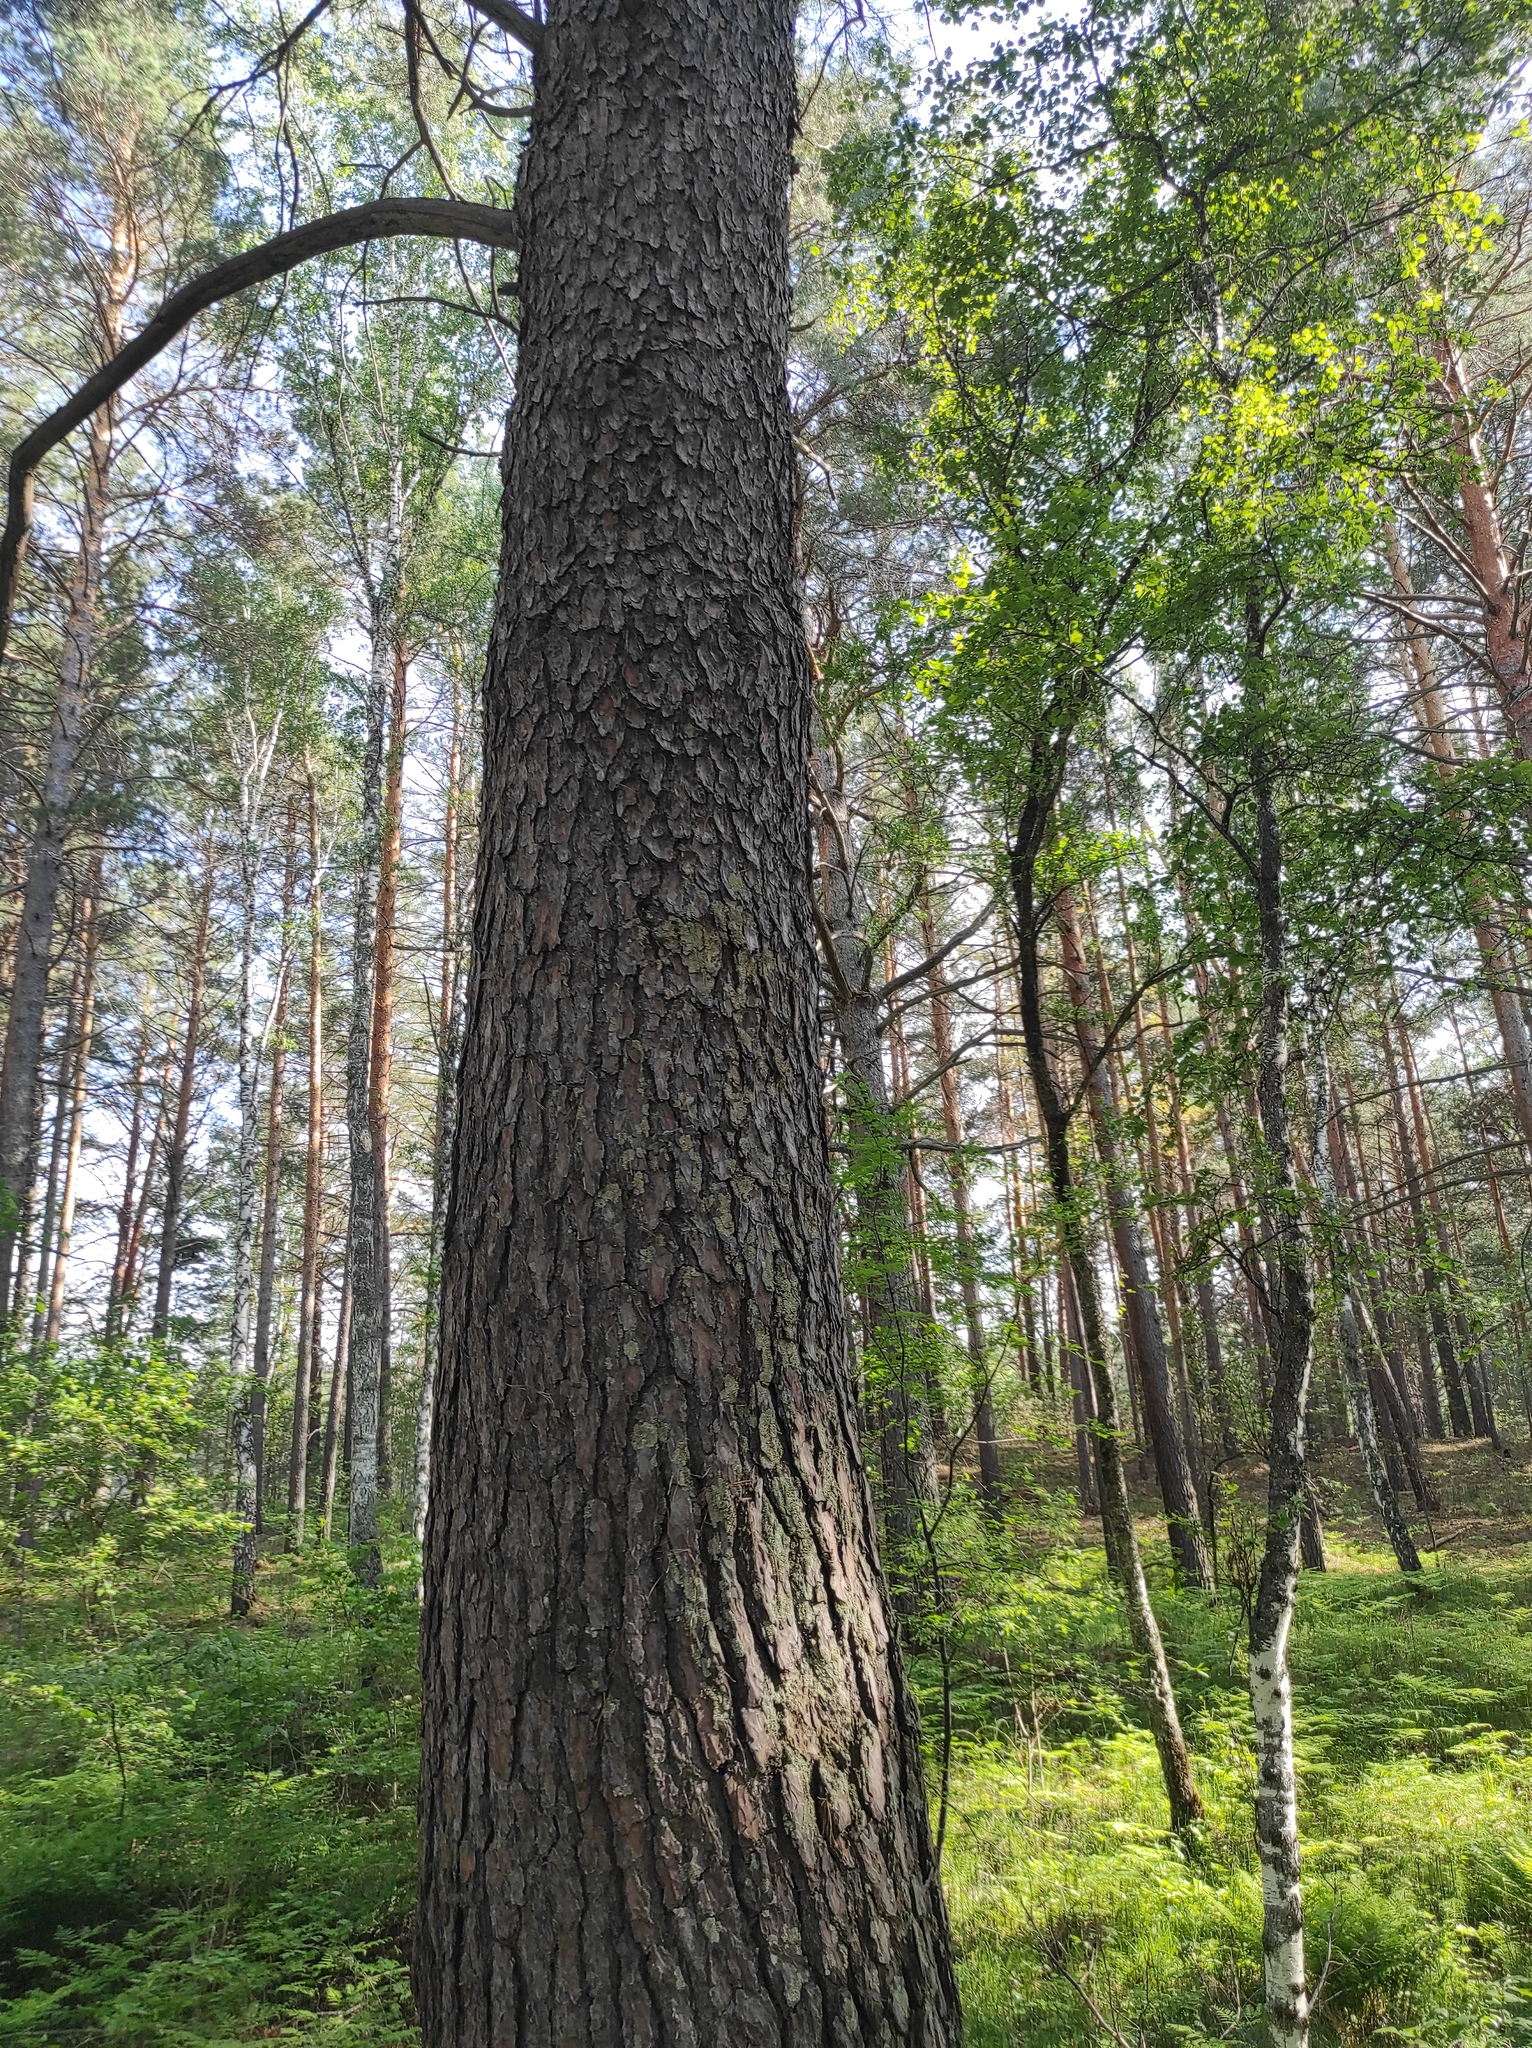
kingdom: Plantae
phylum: Tracheophyta
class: Pinopsida
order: Pinales
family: Pinaceae
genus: Pinus
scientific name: Pinus sylvestris
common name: Scots pine
